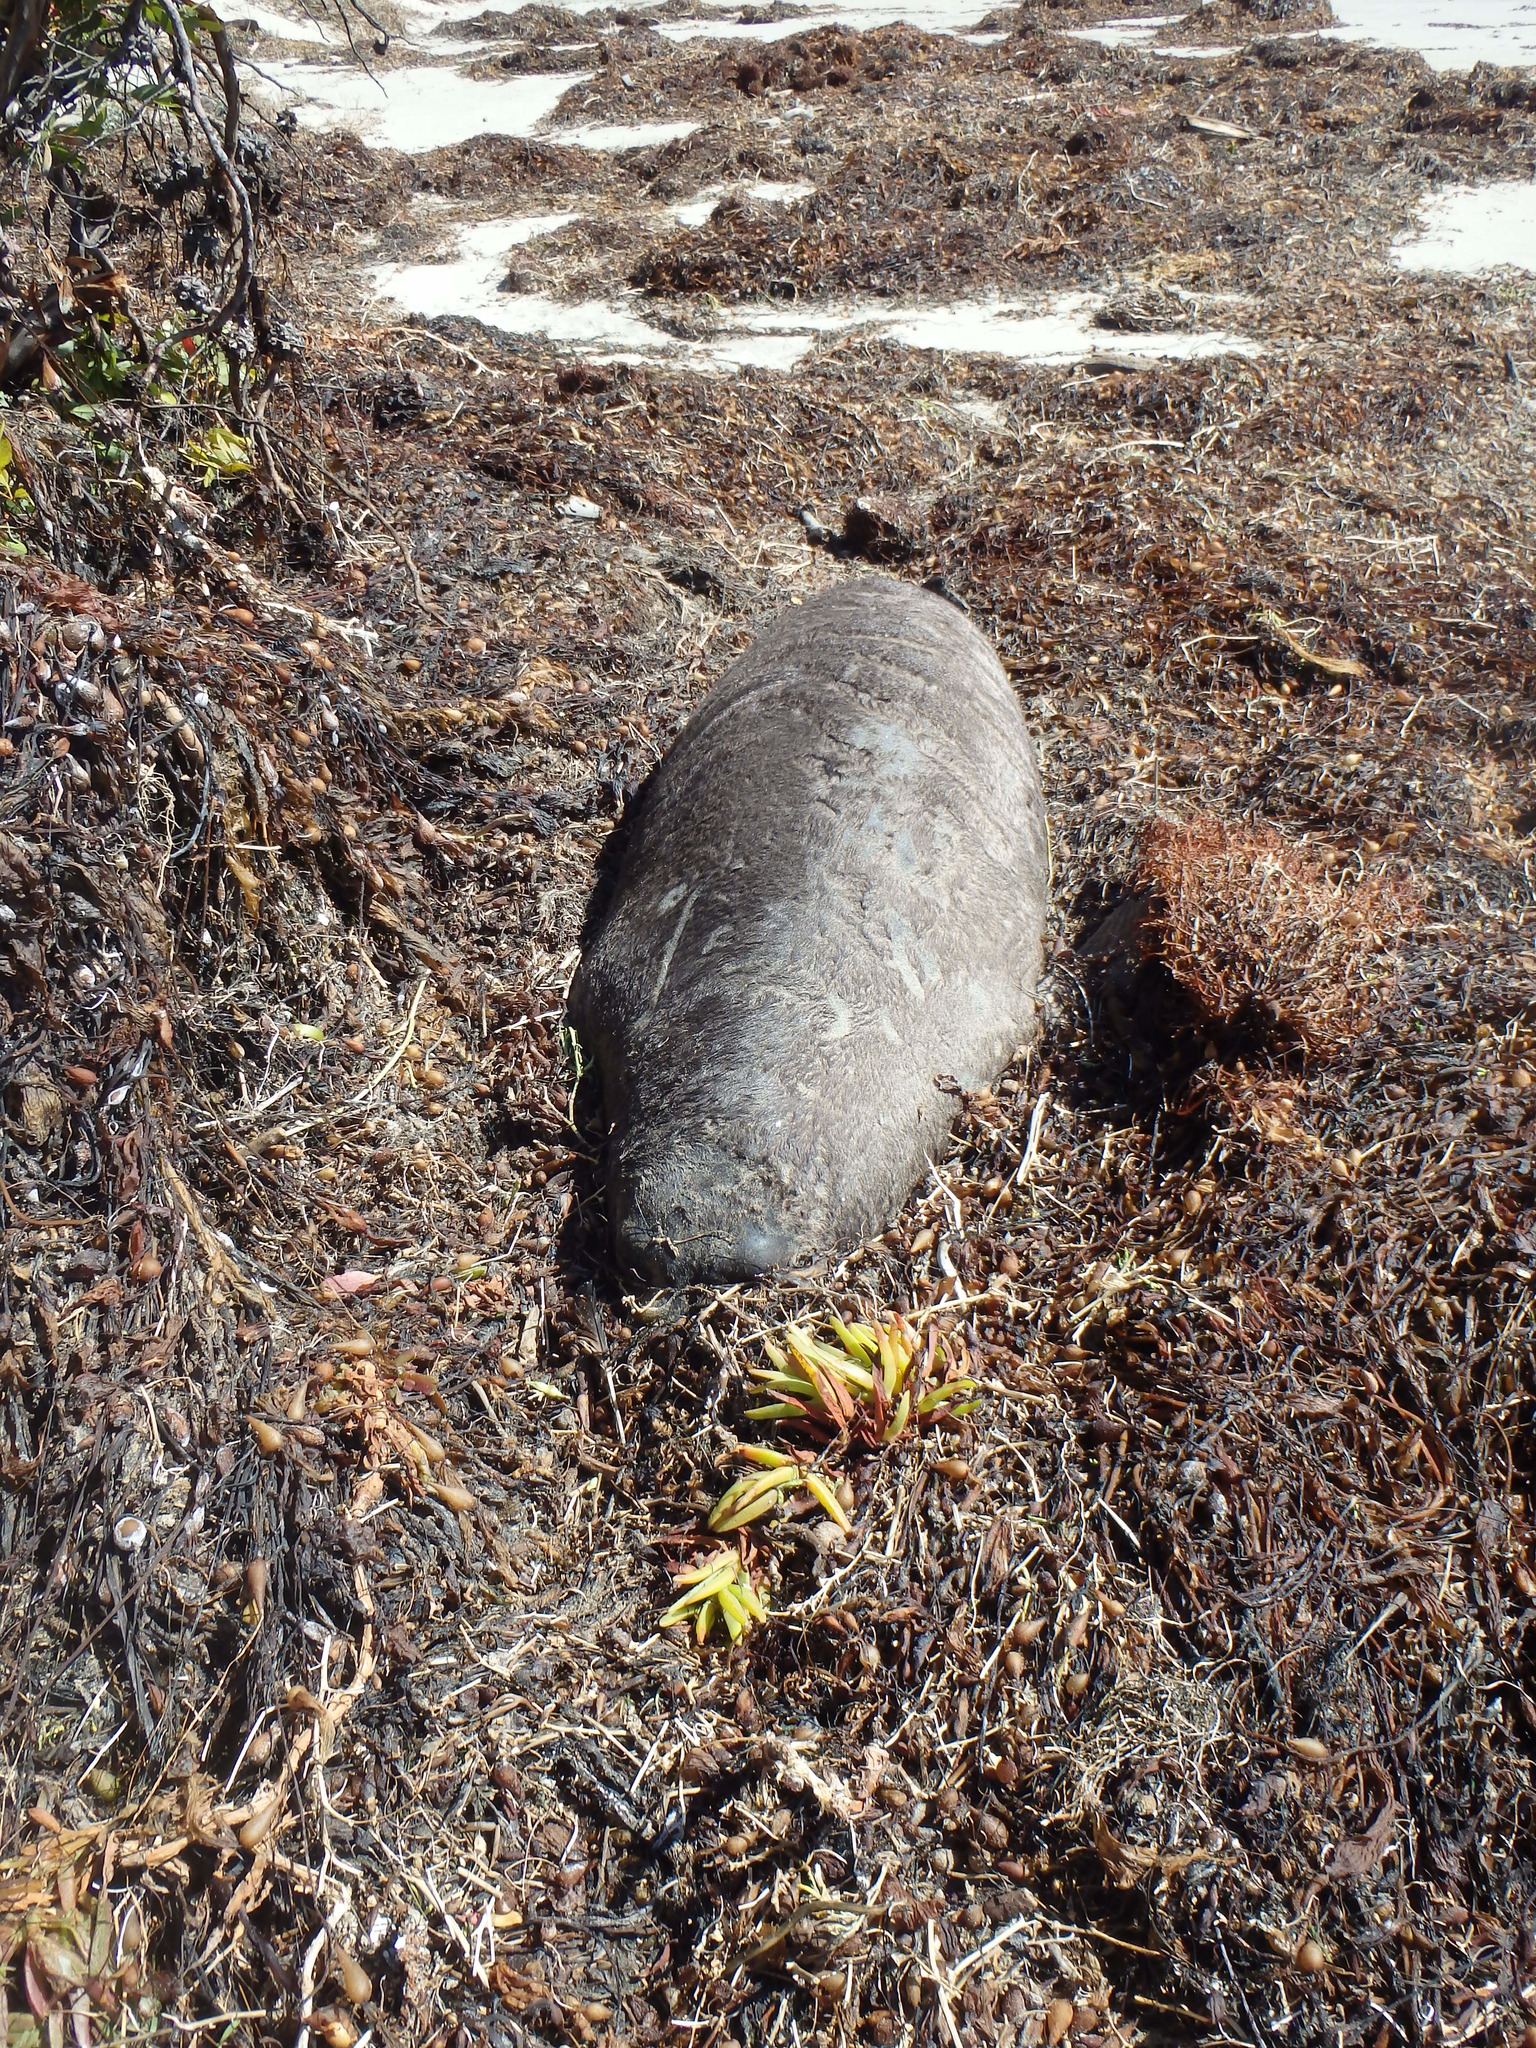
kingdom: Animalia
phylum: Chordata
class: Mammalia
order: Carnivora
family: Phocidae
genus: Mirounga
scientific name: Mirounga angustirostris
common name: Northern elephant seal
